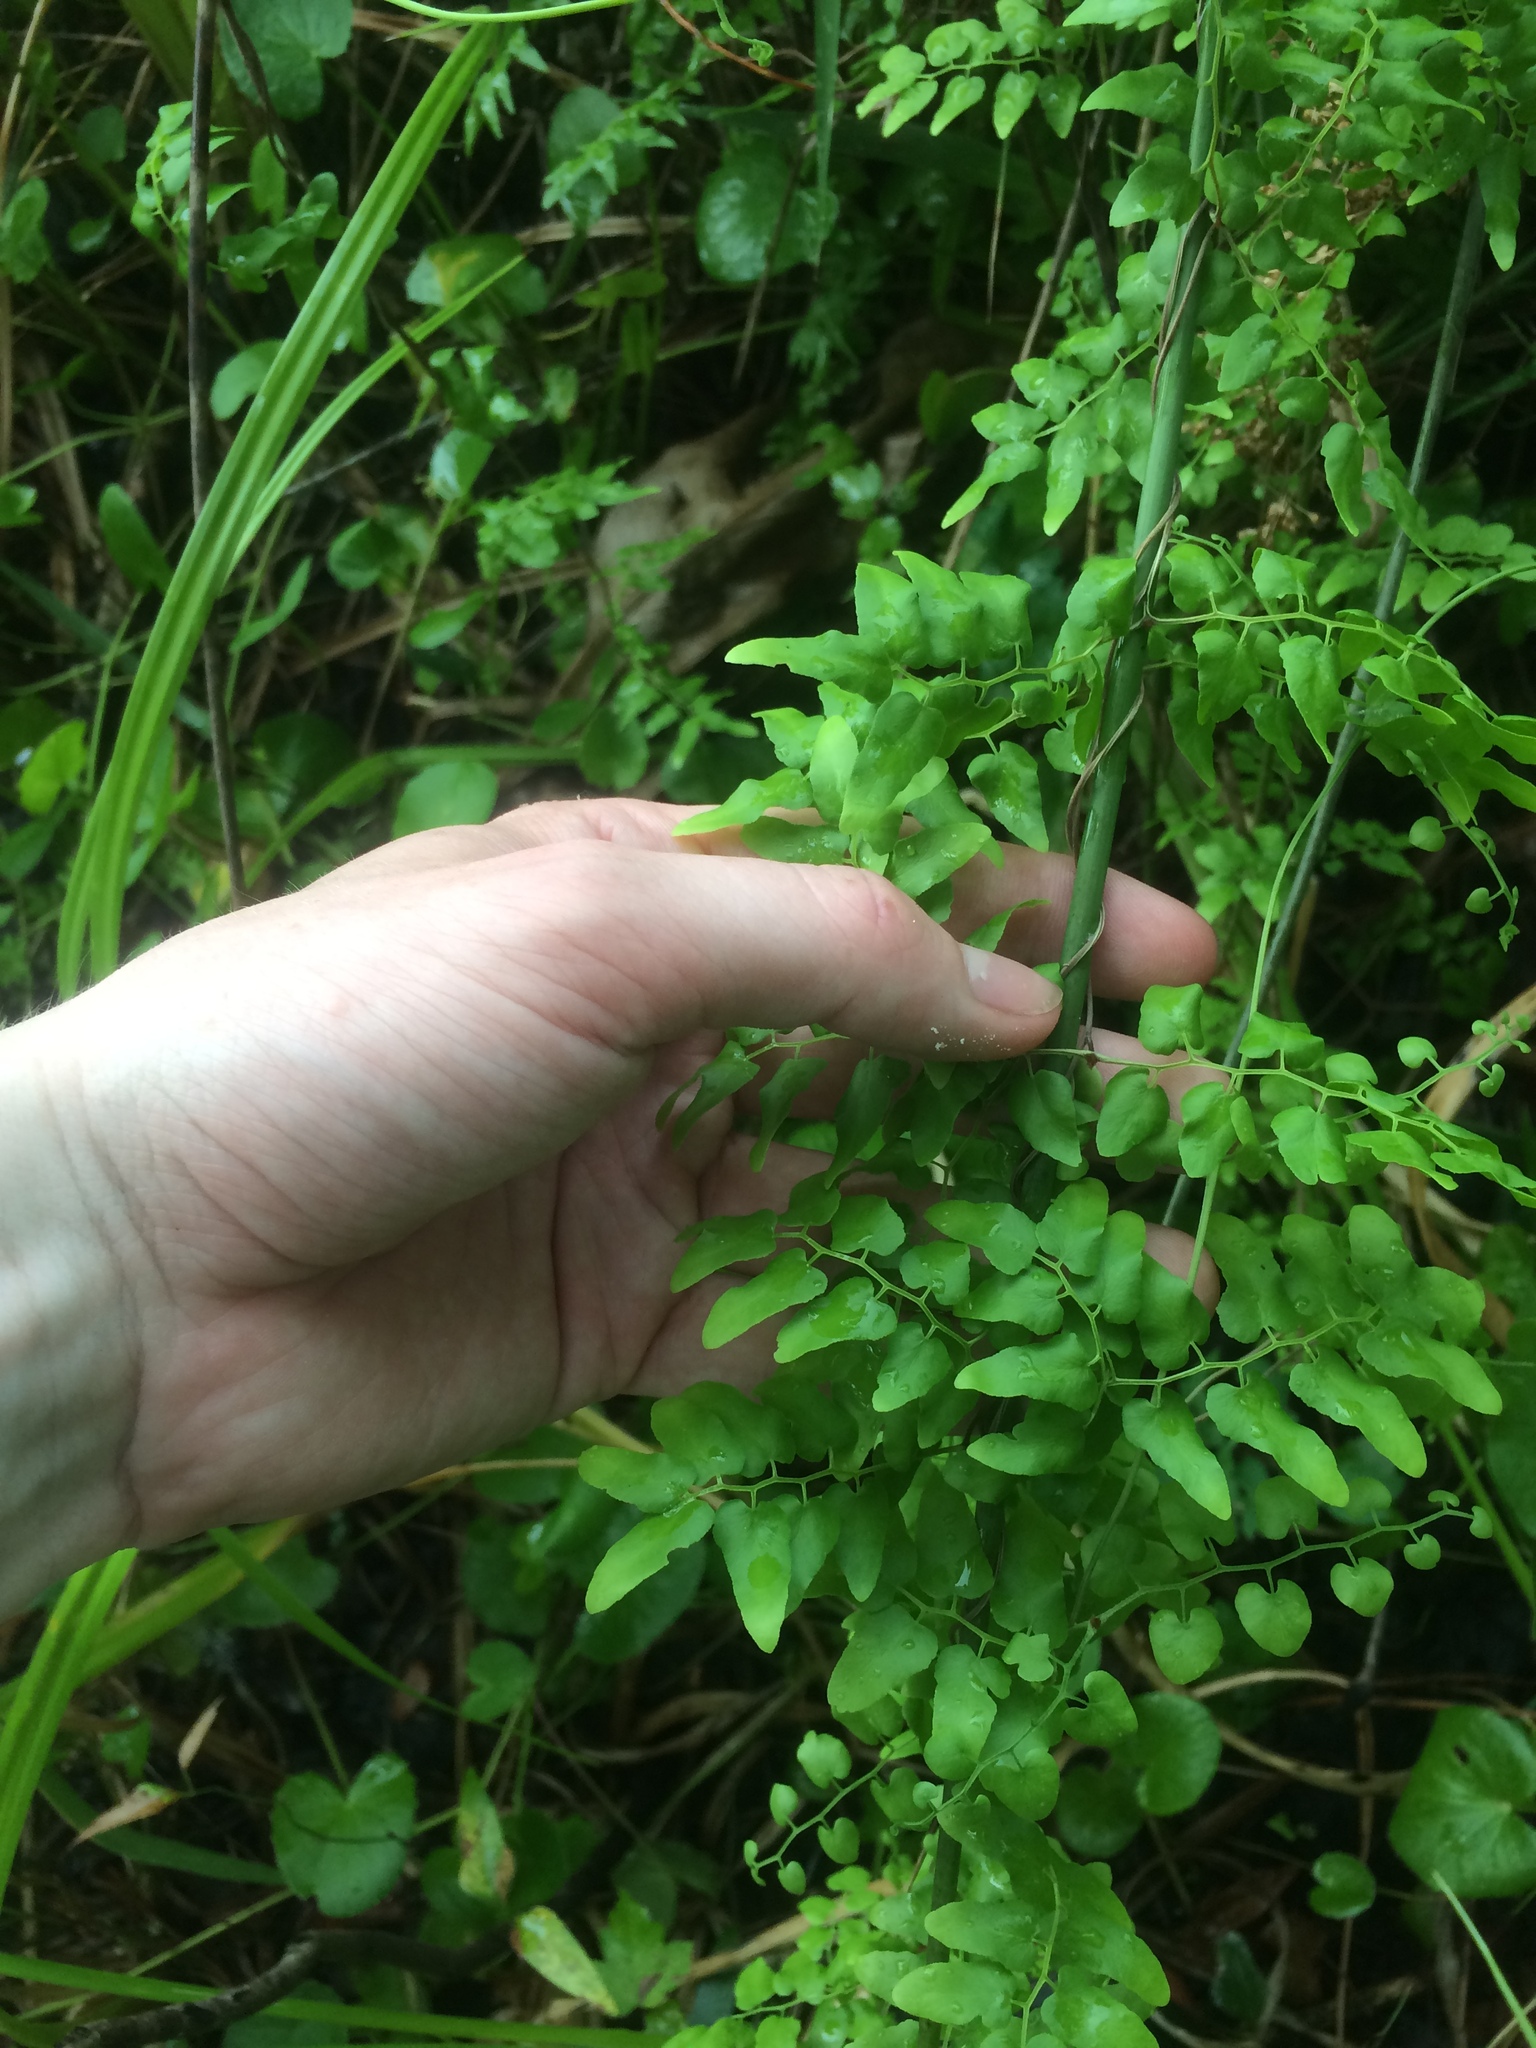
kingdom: Plantae
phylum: Tracheophyta
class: Polypodiopsida
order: Schizaeales
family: Lygodiaceae
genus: Lygodium
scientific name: Lygodium microphyllum
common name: Small-leaf climbing fern
